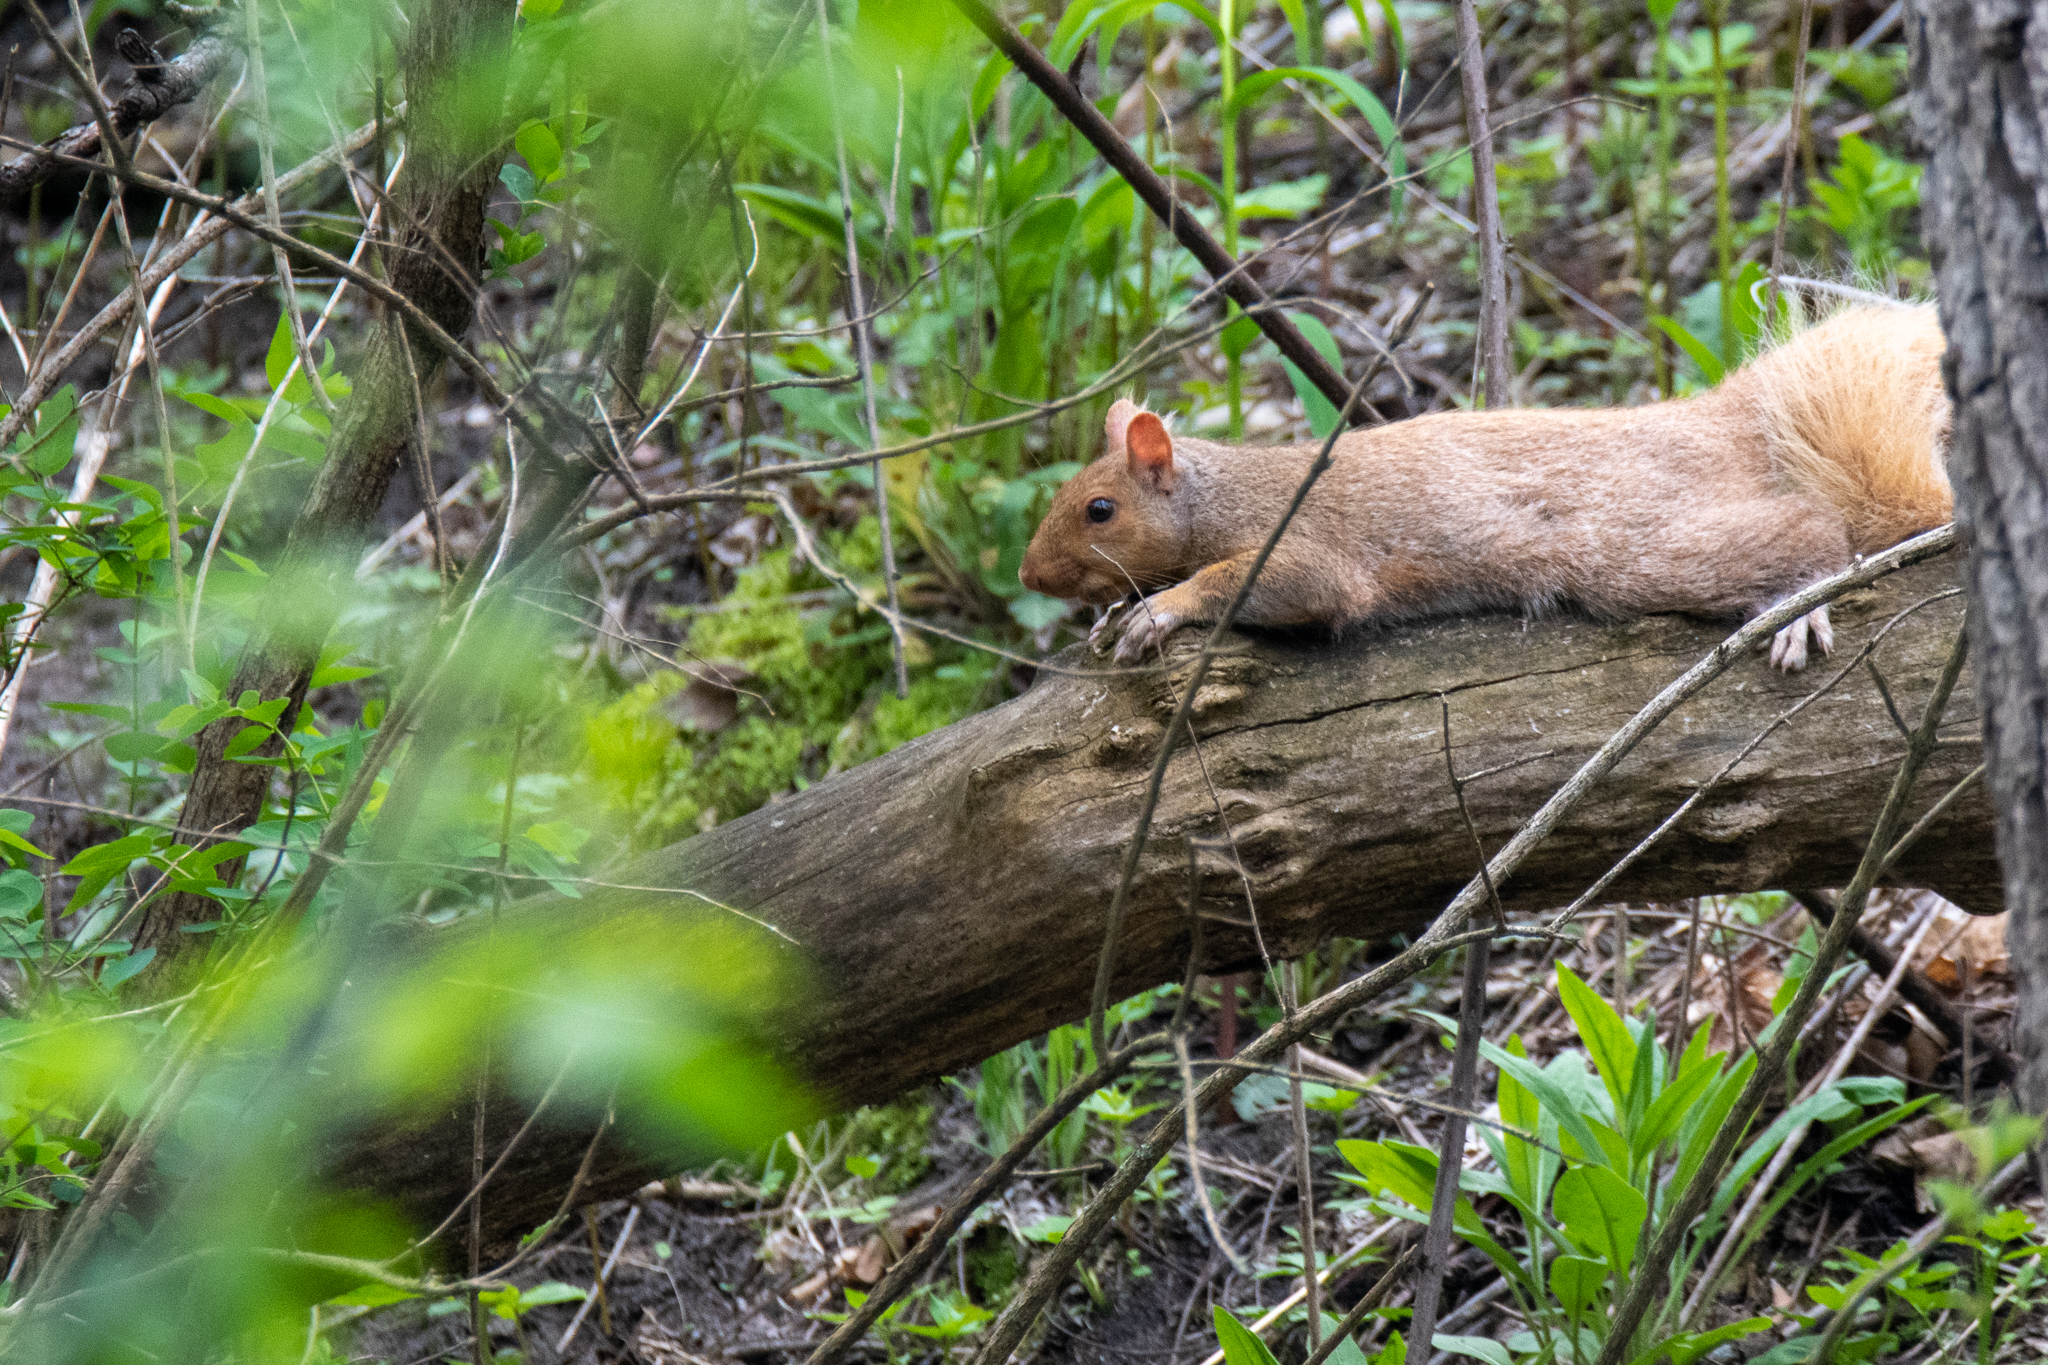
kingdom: Animalia
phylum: Chordata
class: Mammalia
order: Rodentia
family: Sciuridae
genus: Sciurus
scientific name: Sciurus carolinensis
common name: Eastern gray squirrel
